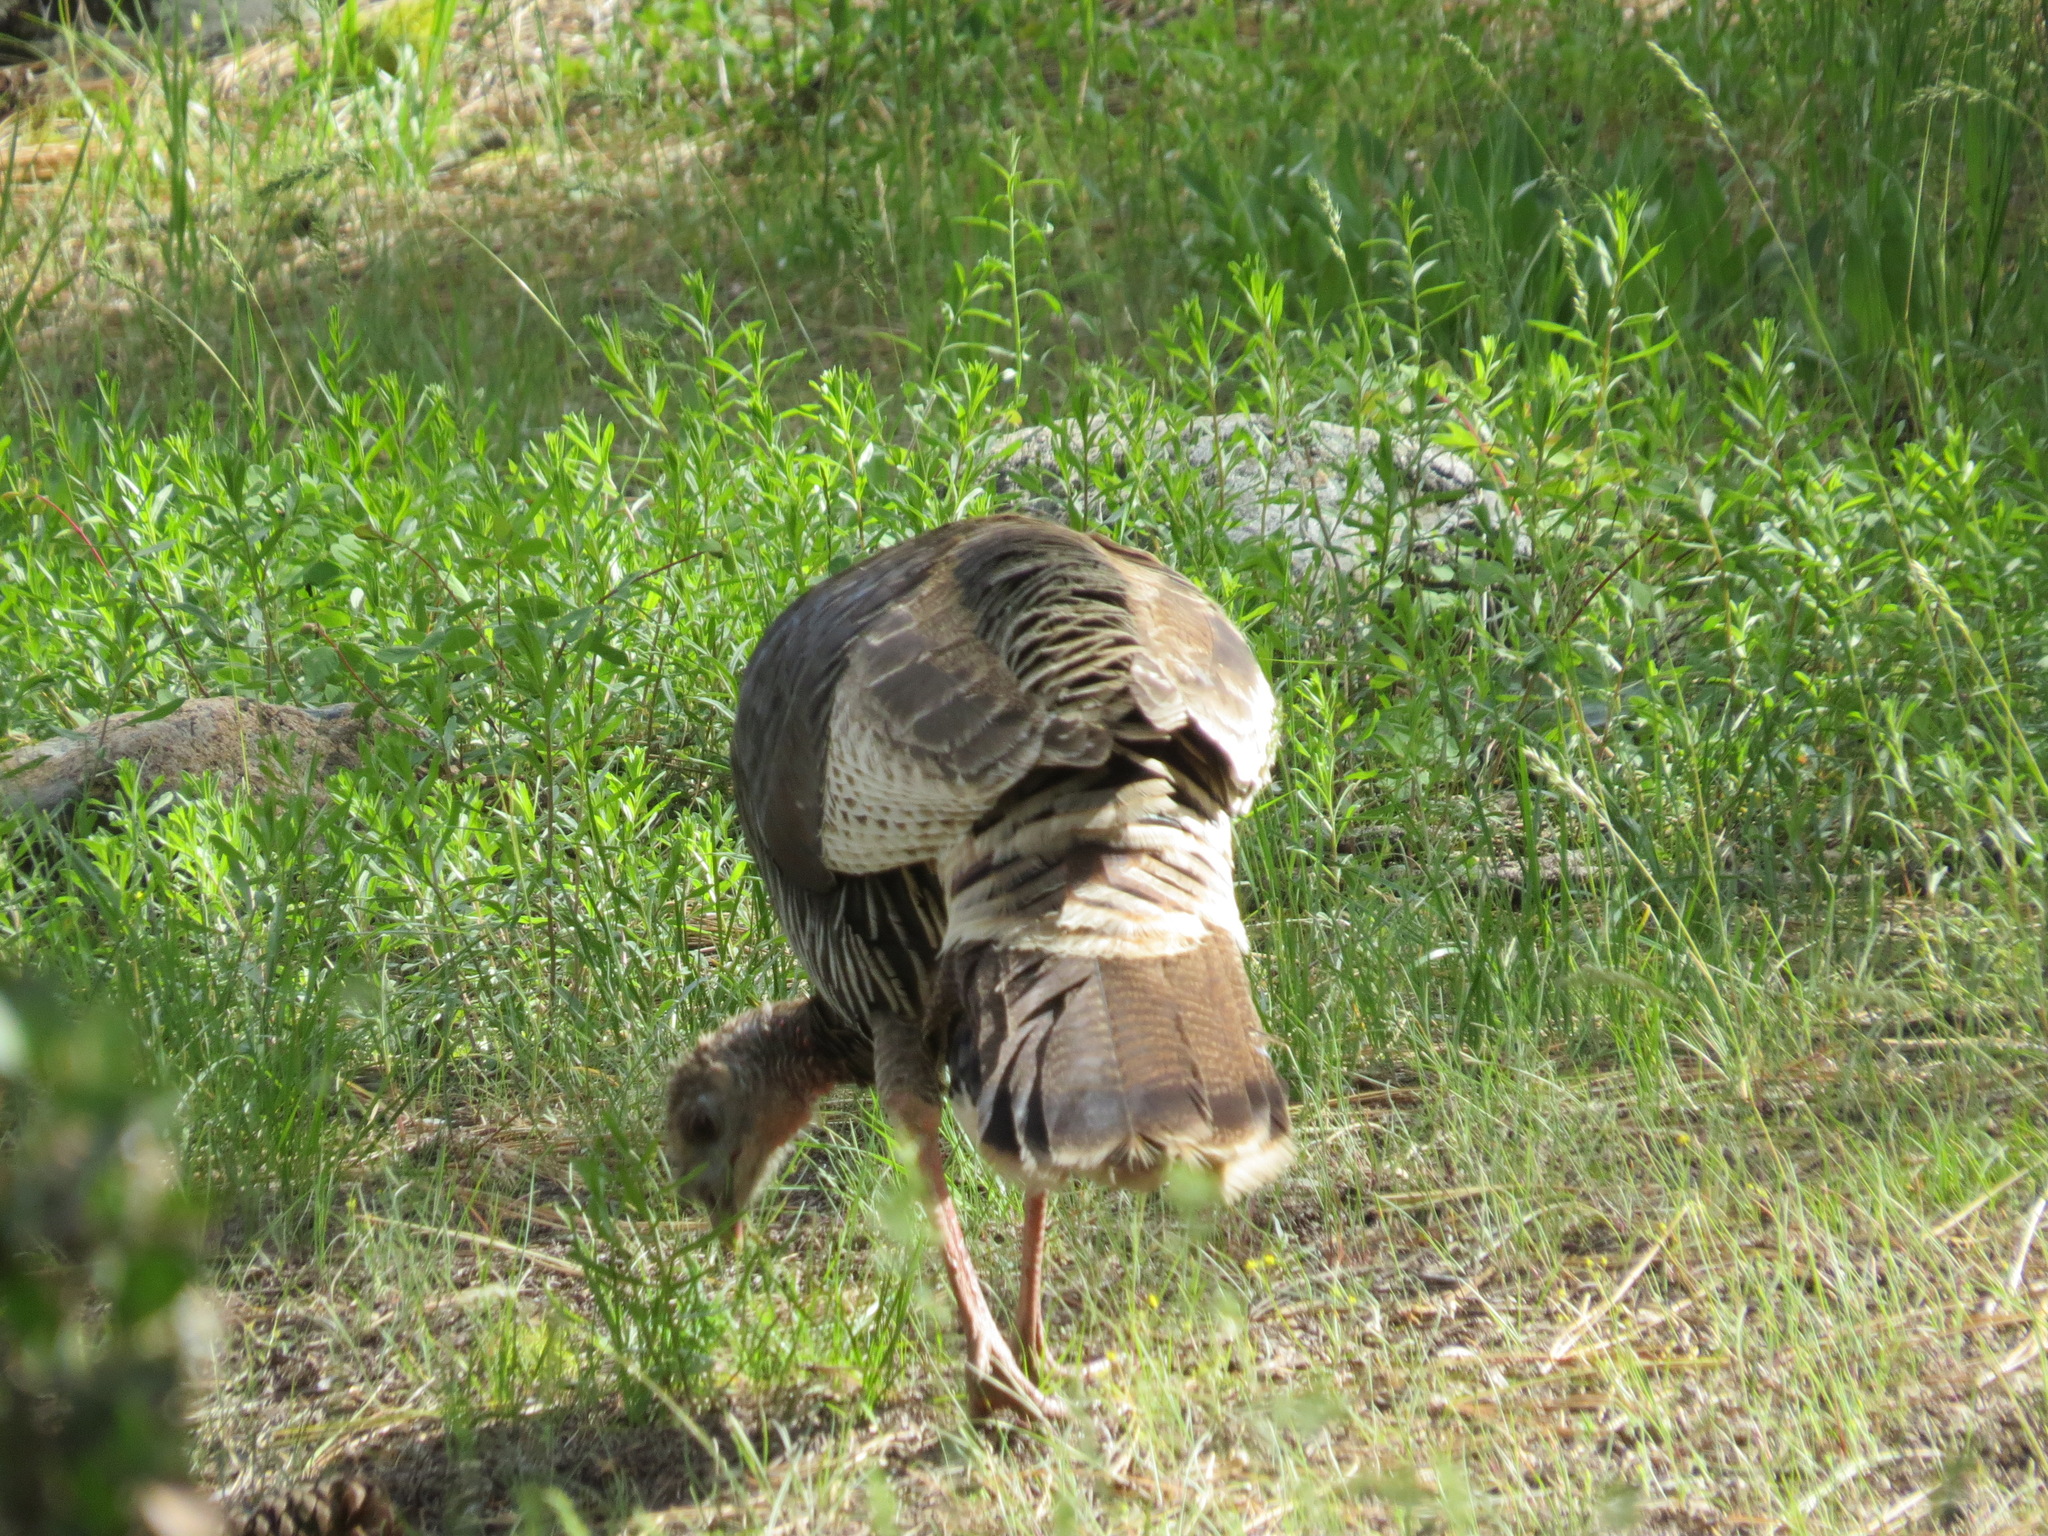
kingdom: Animalia
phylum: Chordata
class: Aves
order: Galliformes
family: Phasianidae
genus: Meleagris
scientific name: Meleagris gallopavo
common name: Wild turkey
